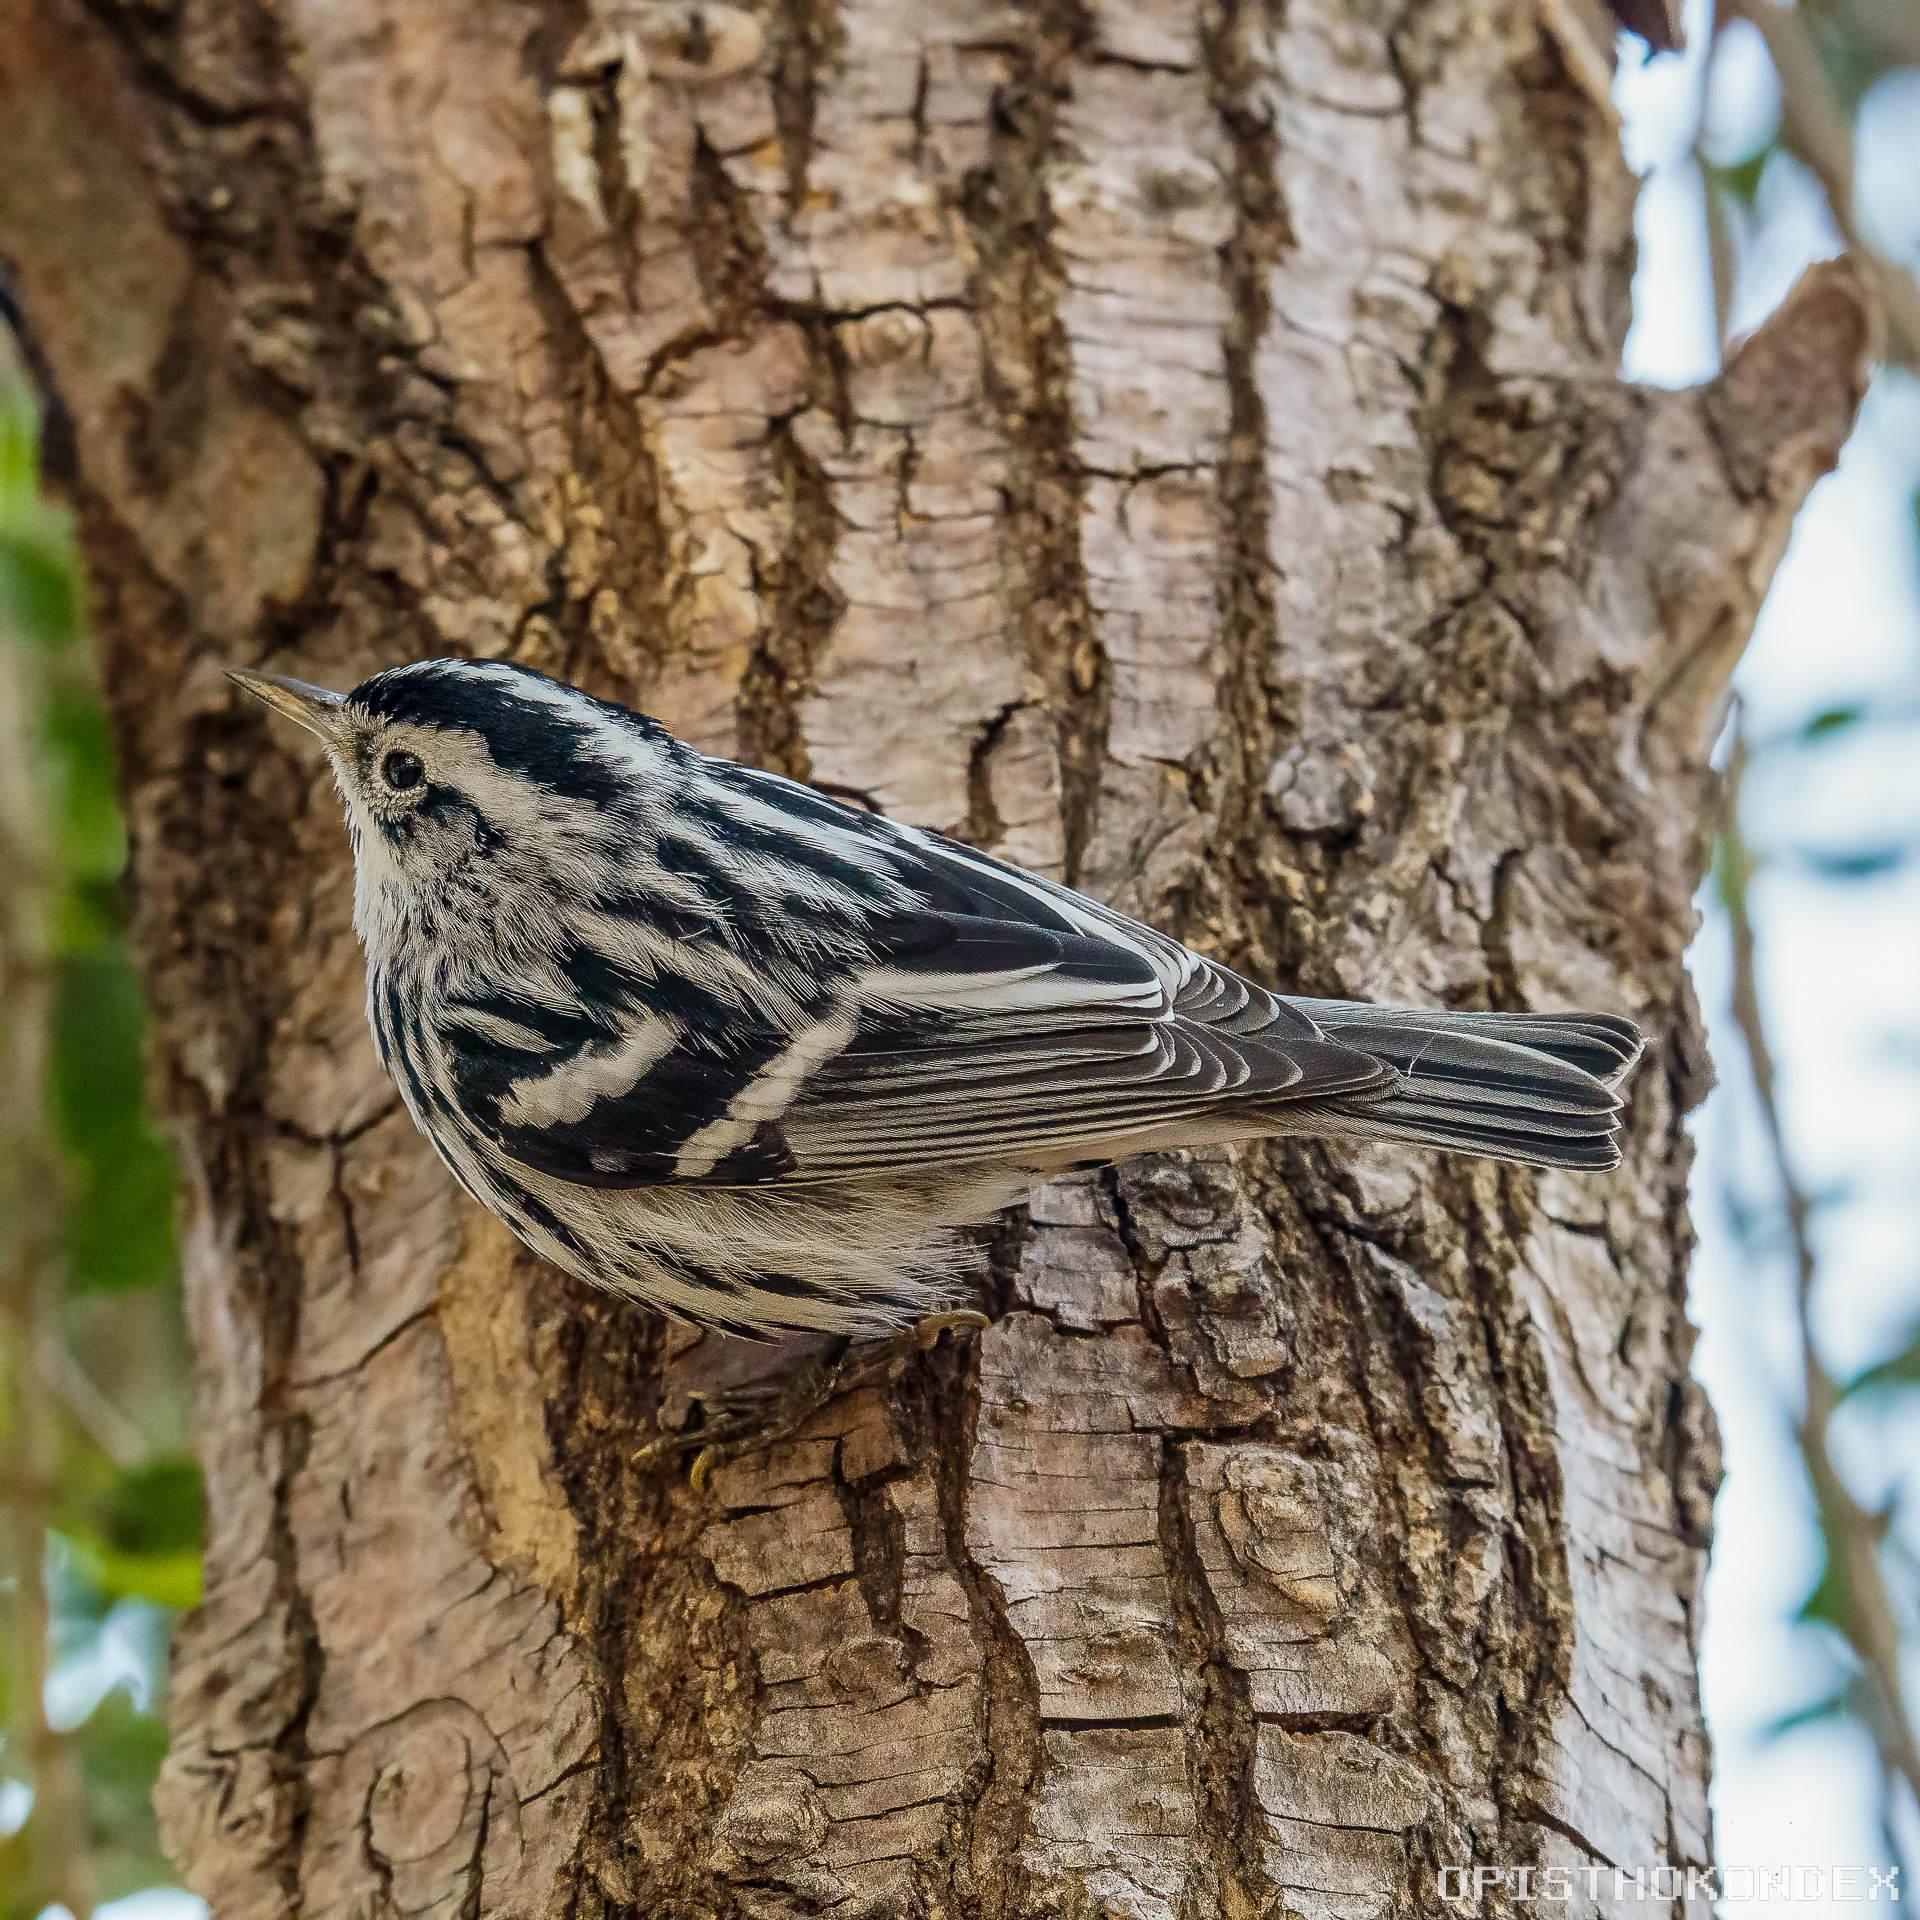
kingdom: Animalia
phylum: Chordata
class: Aves
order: Passeriformes
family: Parulidae
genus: Mniotilta
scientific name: Mniotilta varia
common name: Black-and-white warbler
